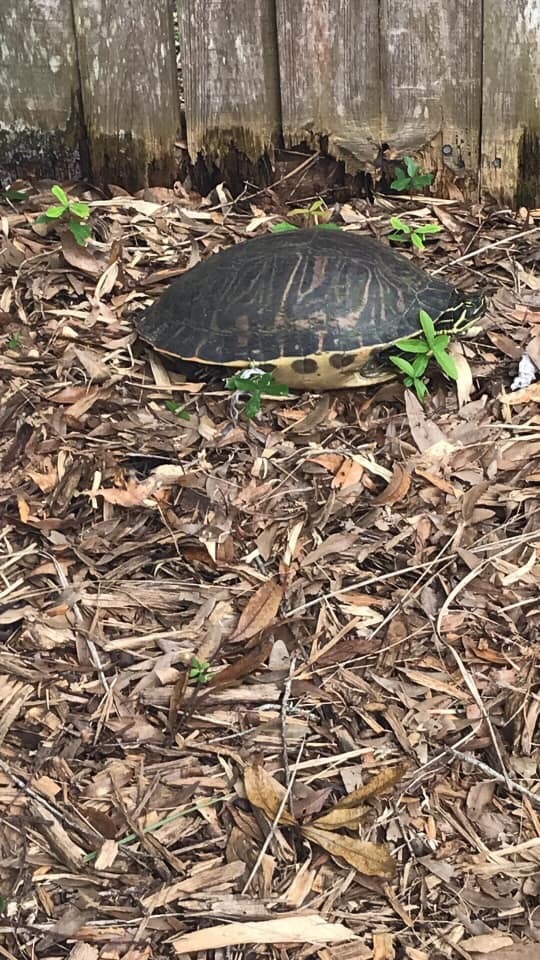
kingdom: Animalia
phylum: Chordata
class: Testudines
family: Emydidae
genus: Pseudemys
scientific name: Pseudemys peninsularis
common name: Peninsula cooter
